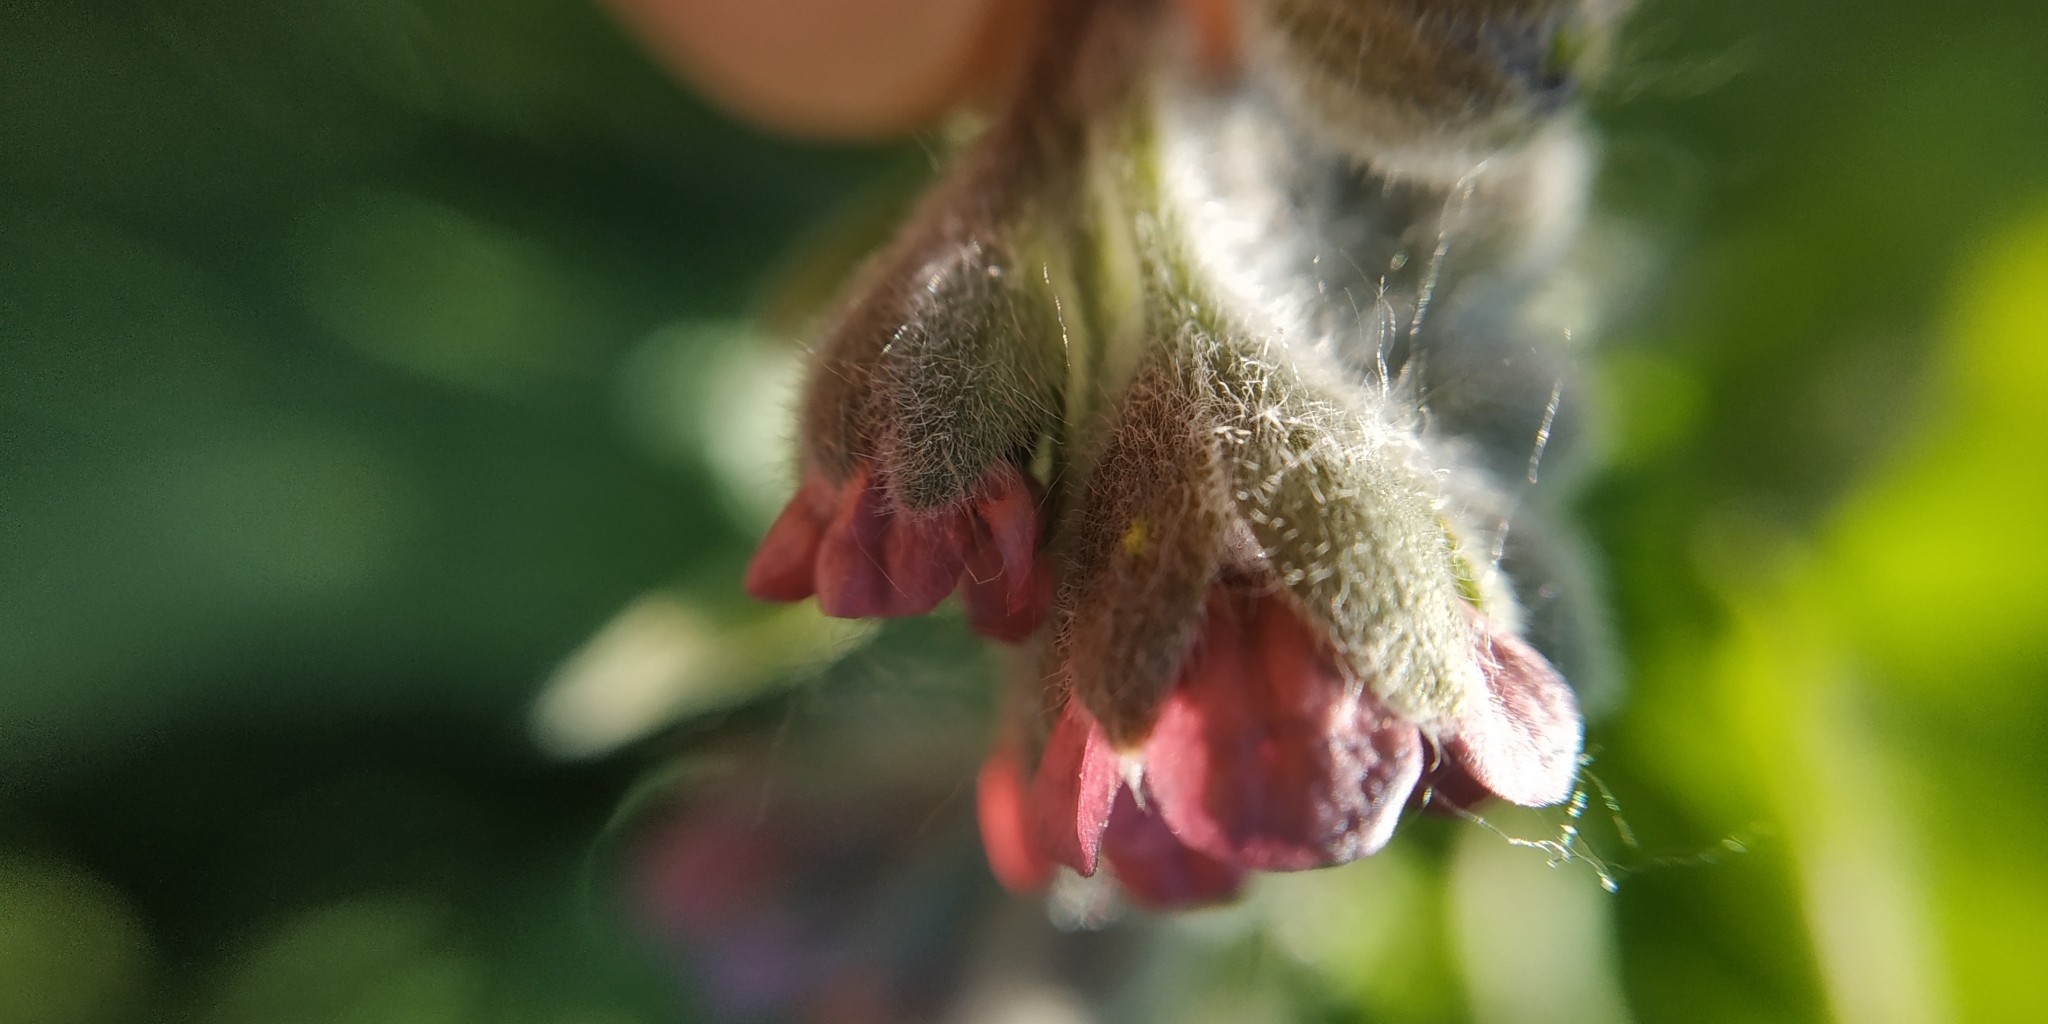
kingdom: Plantae
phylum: Tracheophyta
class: Magnoliopsida
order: Boraginales
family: Boraginaceae
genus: Cynoglossum
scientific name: Cynoglossum officinale
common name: Hound's-tongue
